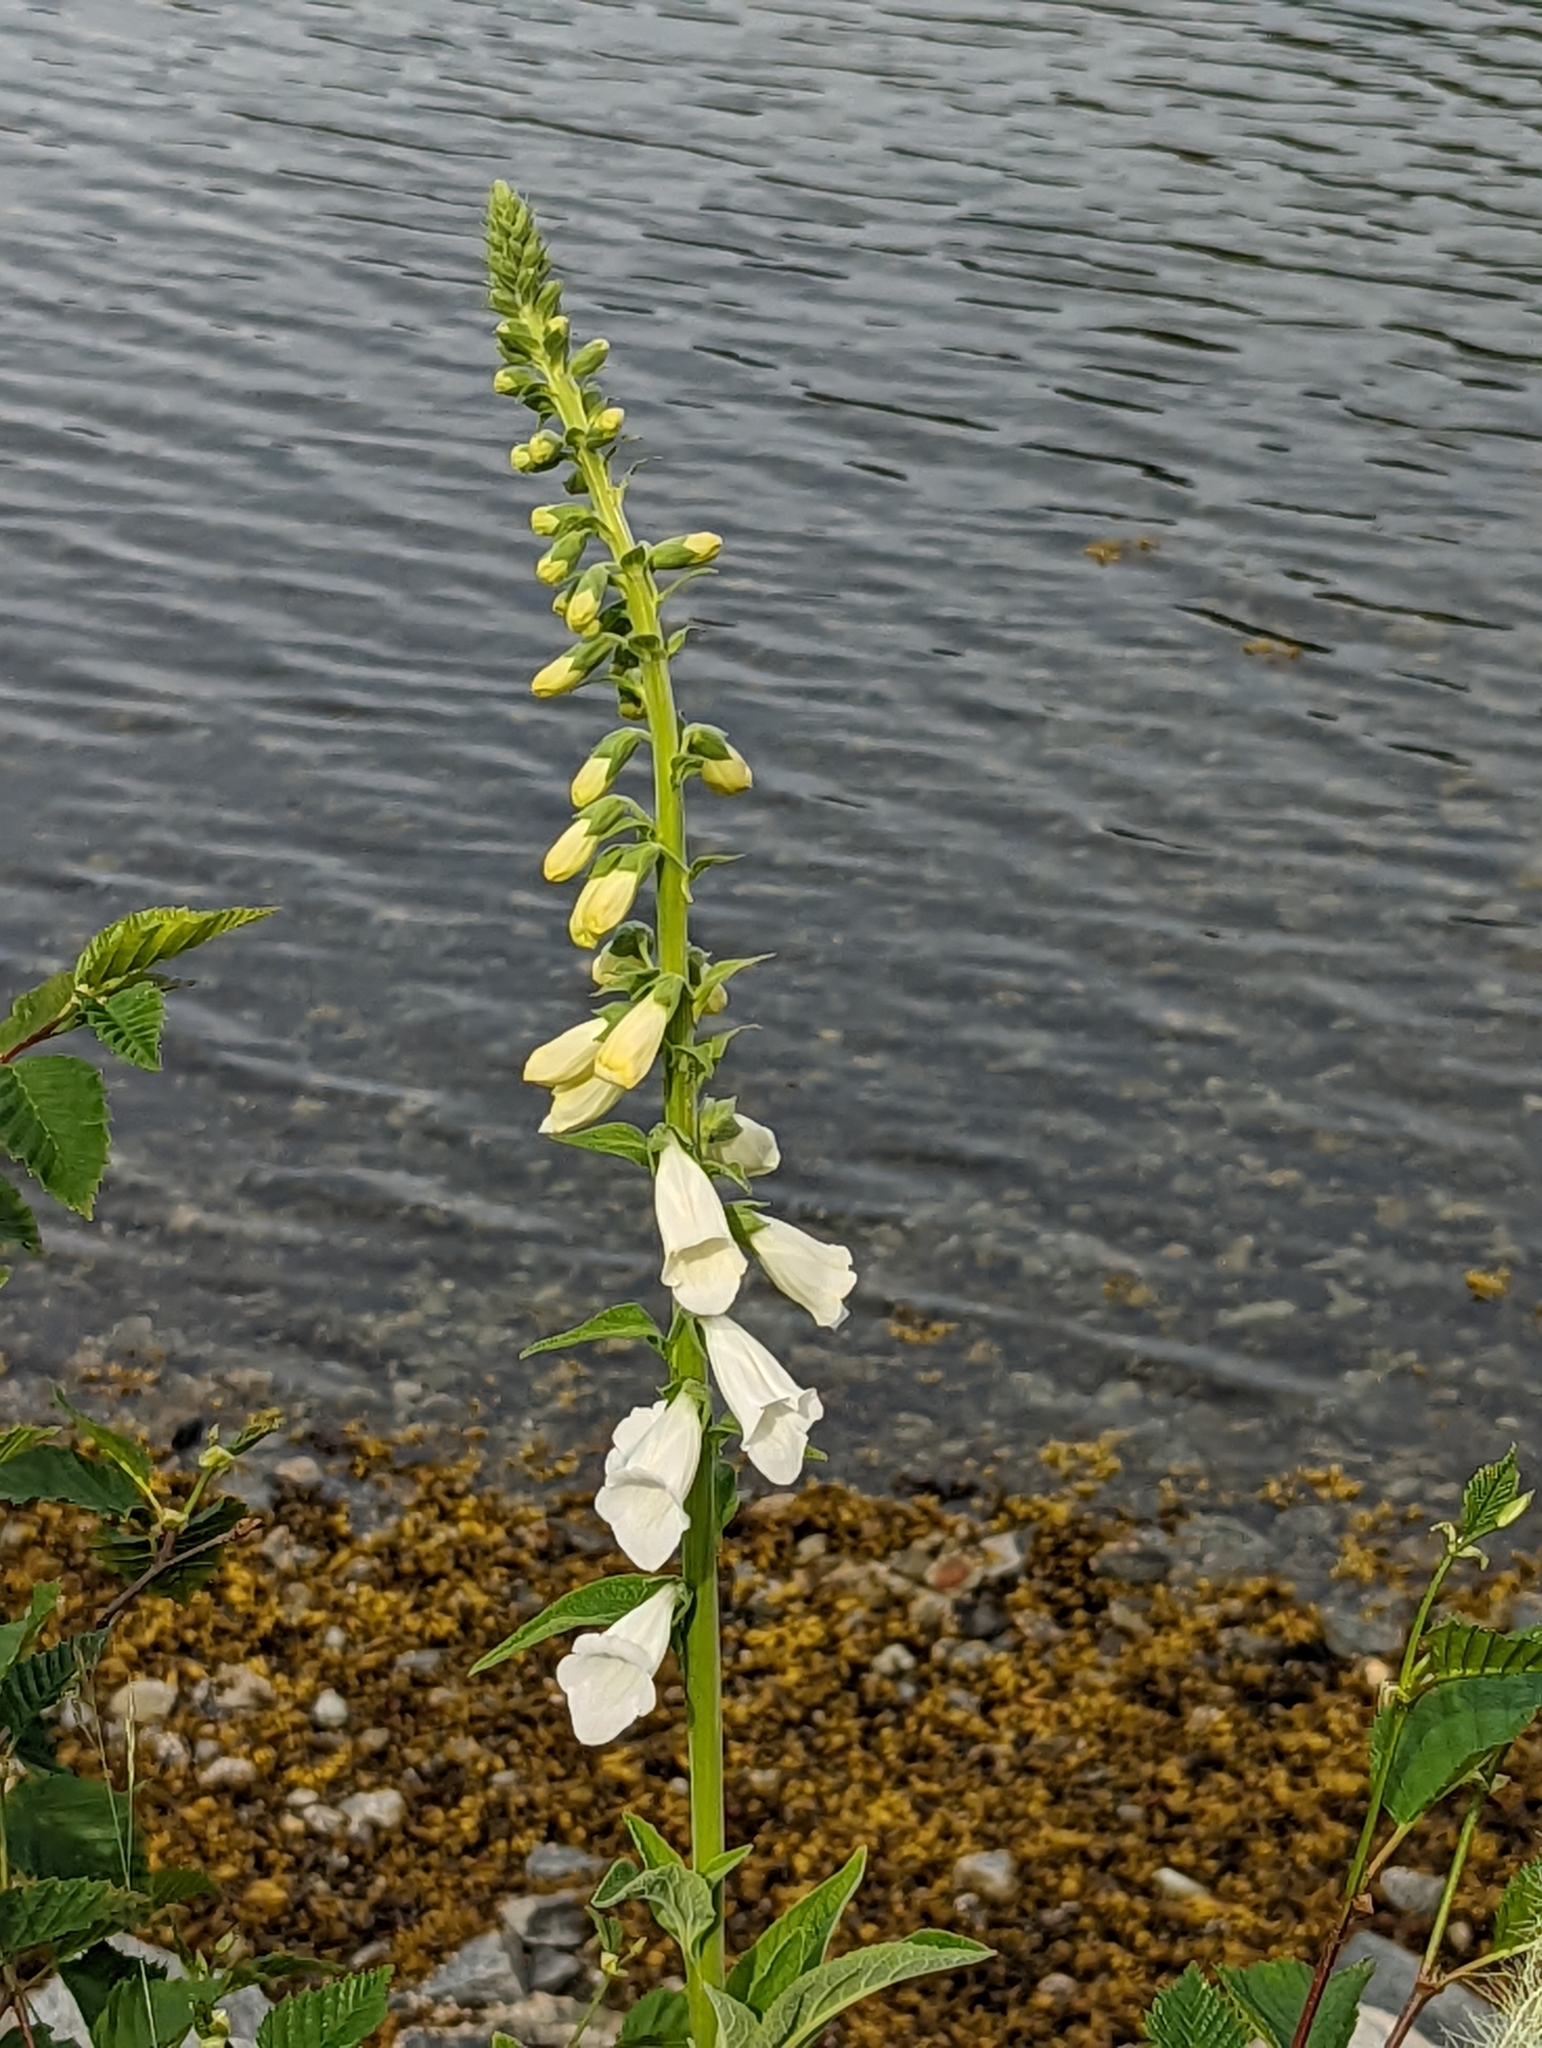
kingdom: Plantae
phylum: Tracheophyta
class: Magnoliopsida
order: Lamiales
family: Plantaginaceae
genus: Digitalis
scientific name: Digitalis purpurea
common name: Foxglove
